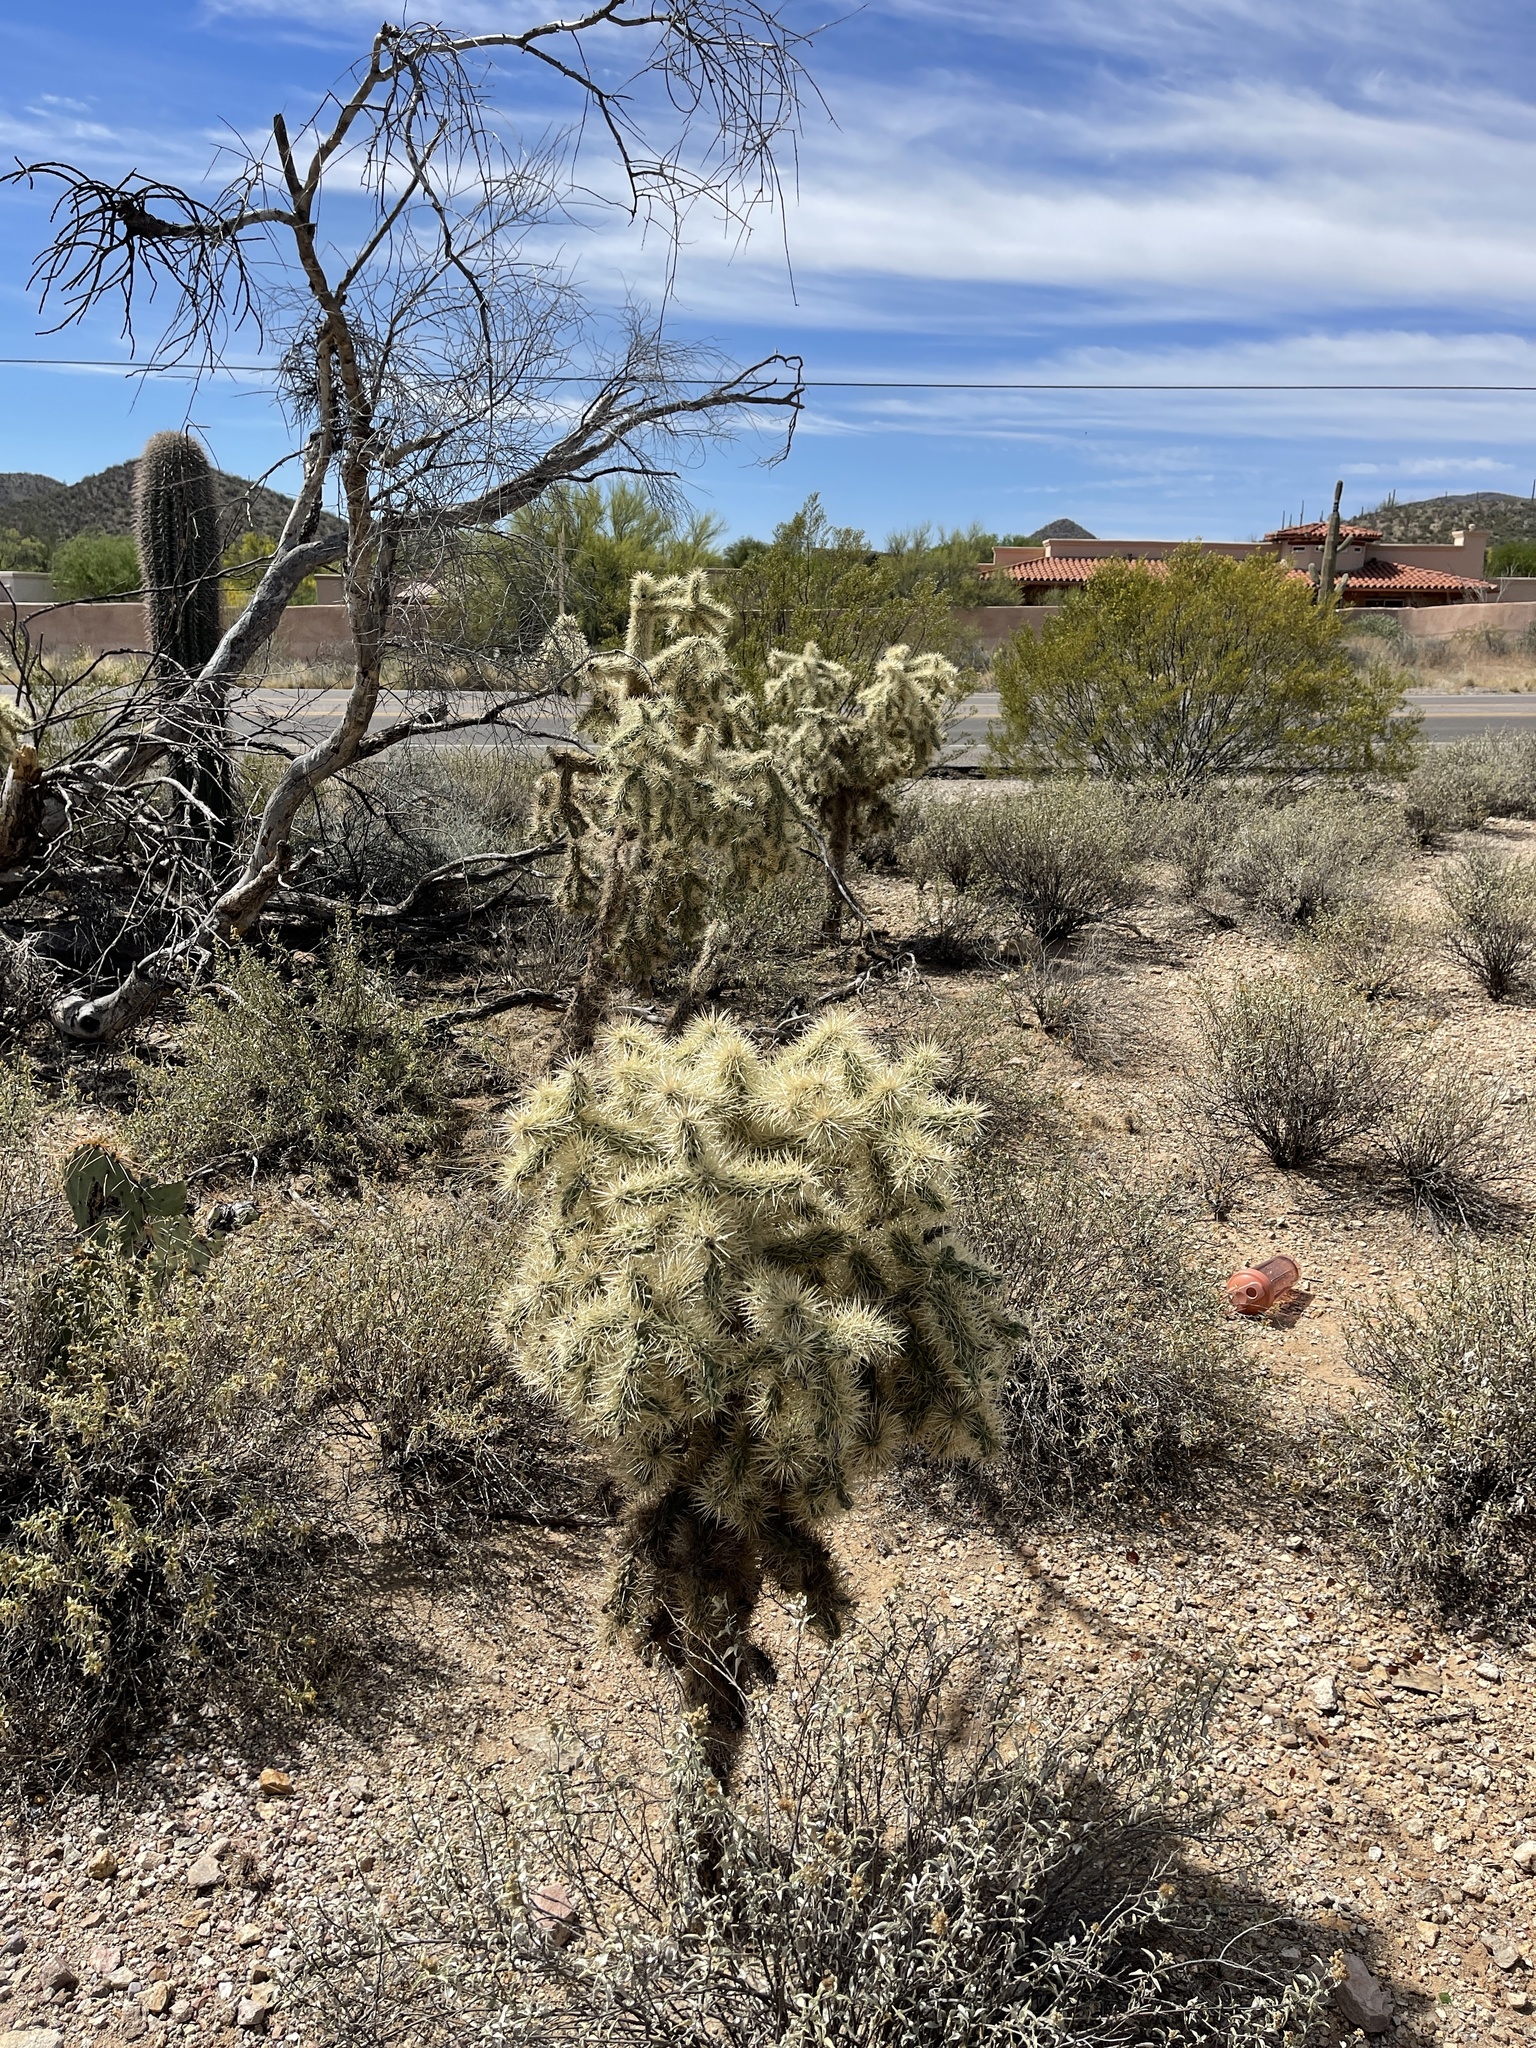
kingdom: Plantae
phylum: Tracheophyta
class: Magnoliopsida
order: Caryophyllales
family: Cactaceae
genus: Cylindropuntia
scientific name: Cylindropuntia fulgida
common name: Jumping cholla
